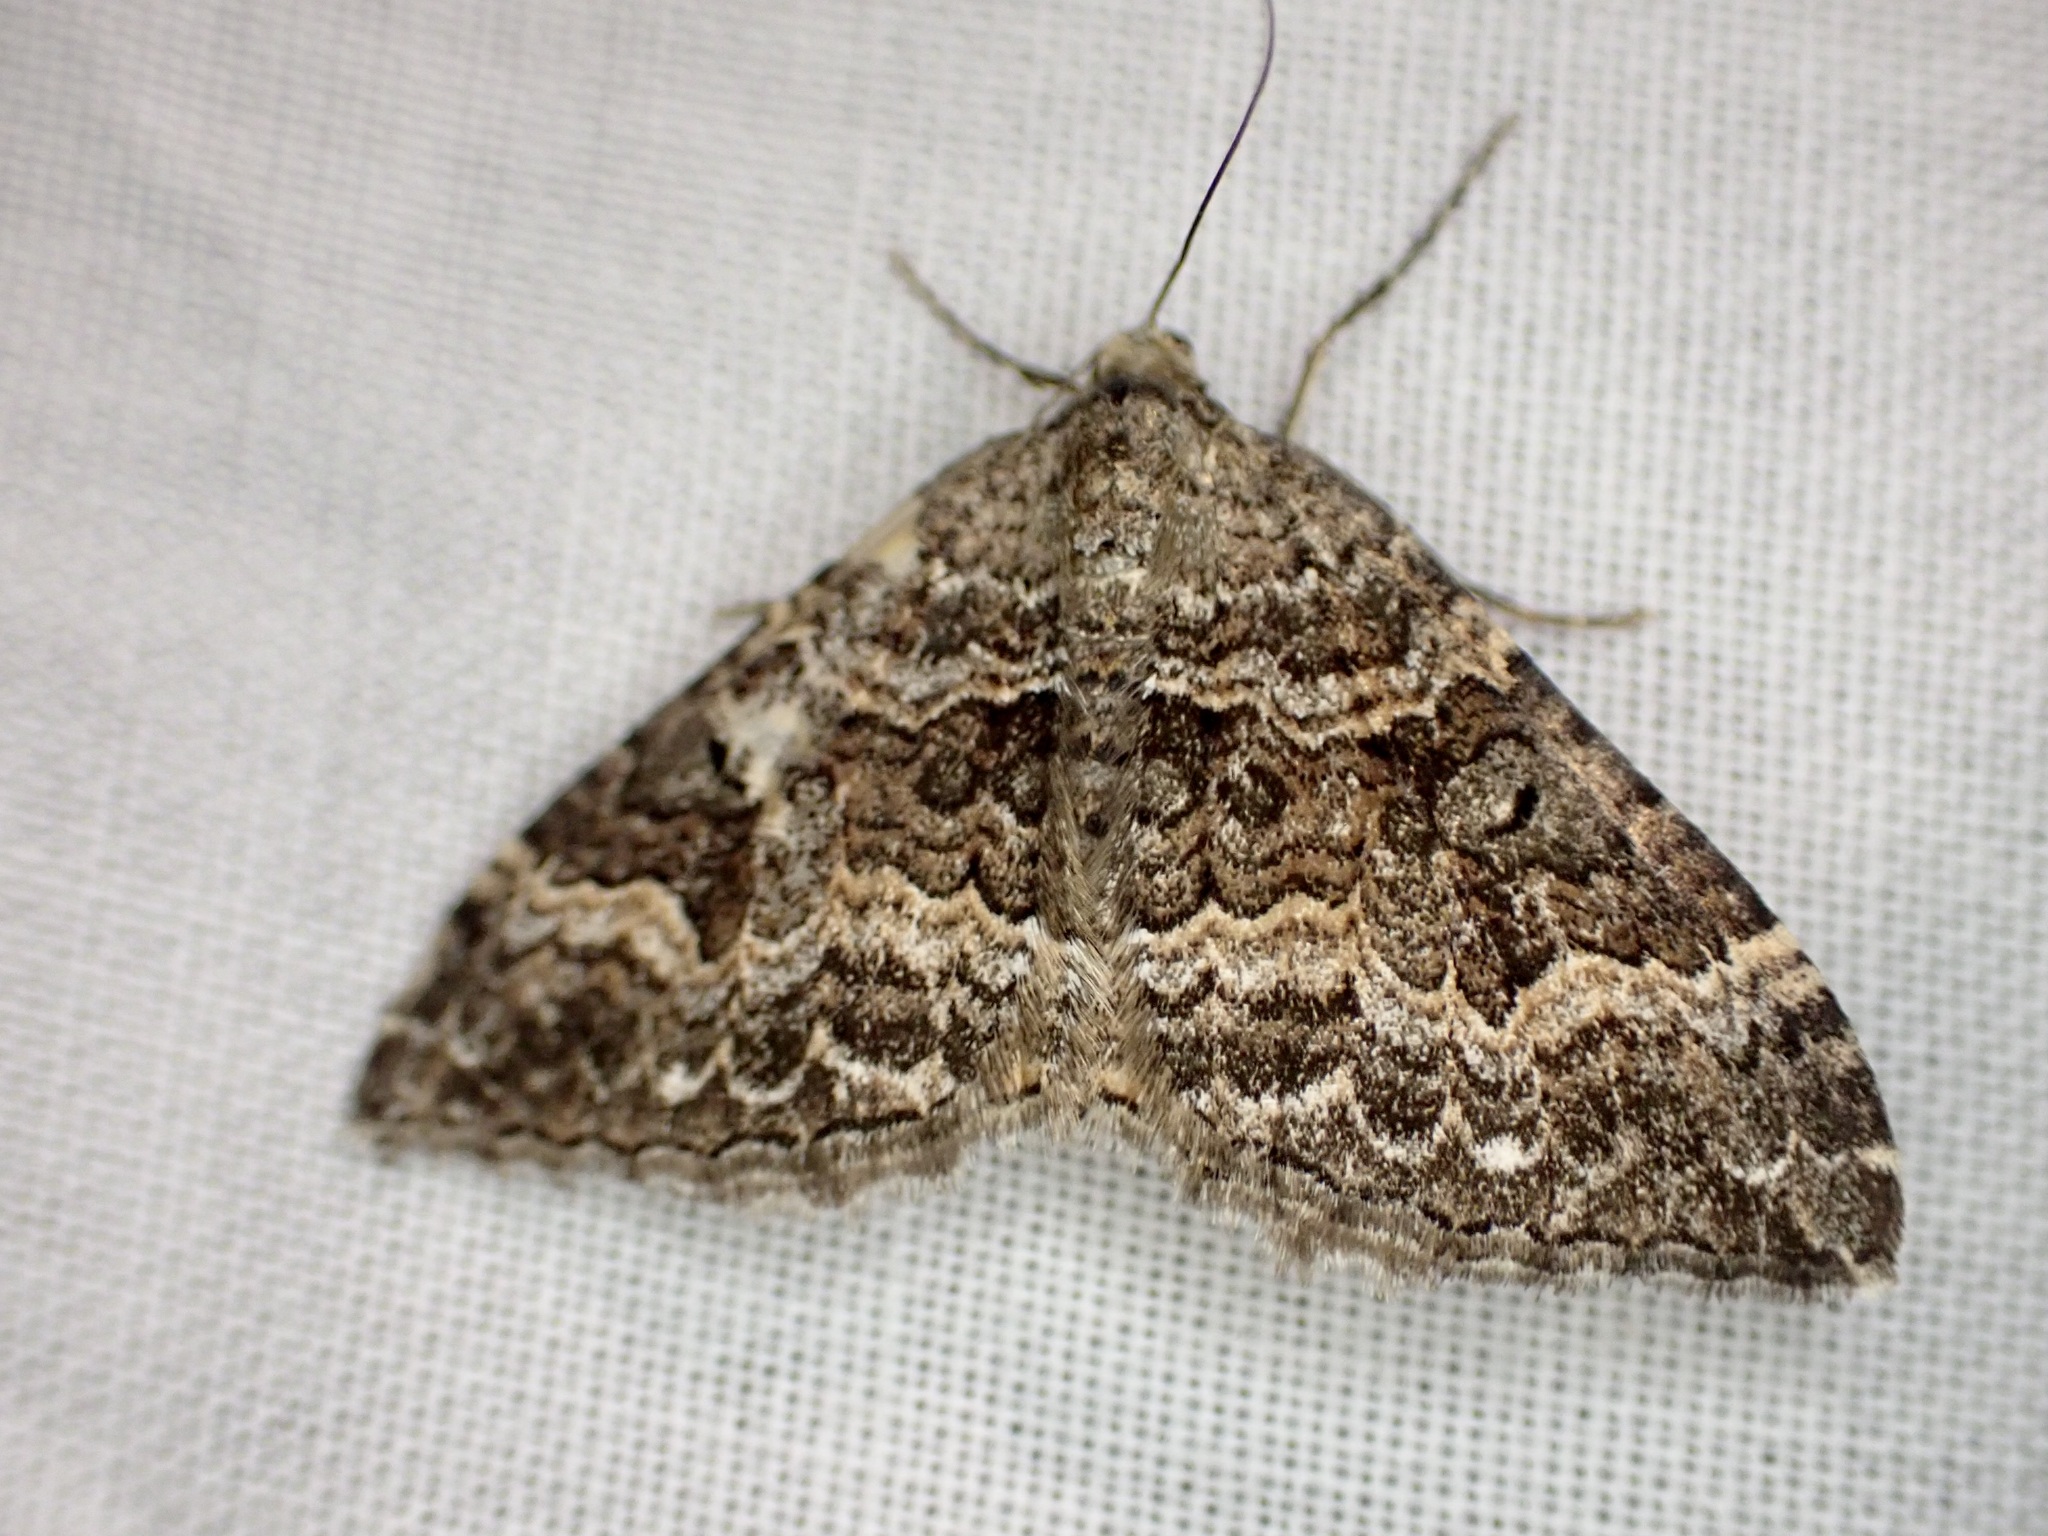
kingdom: Animalia
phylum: Arthropoda
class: Insecta
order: Lepidoptera
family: Geometridae
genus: Hydriomena
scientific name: Hydriomena deltoidata
